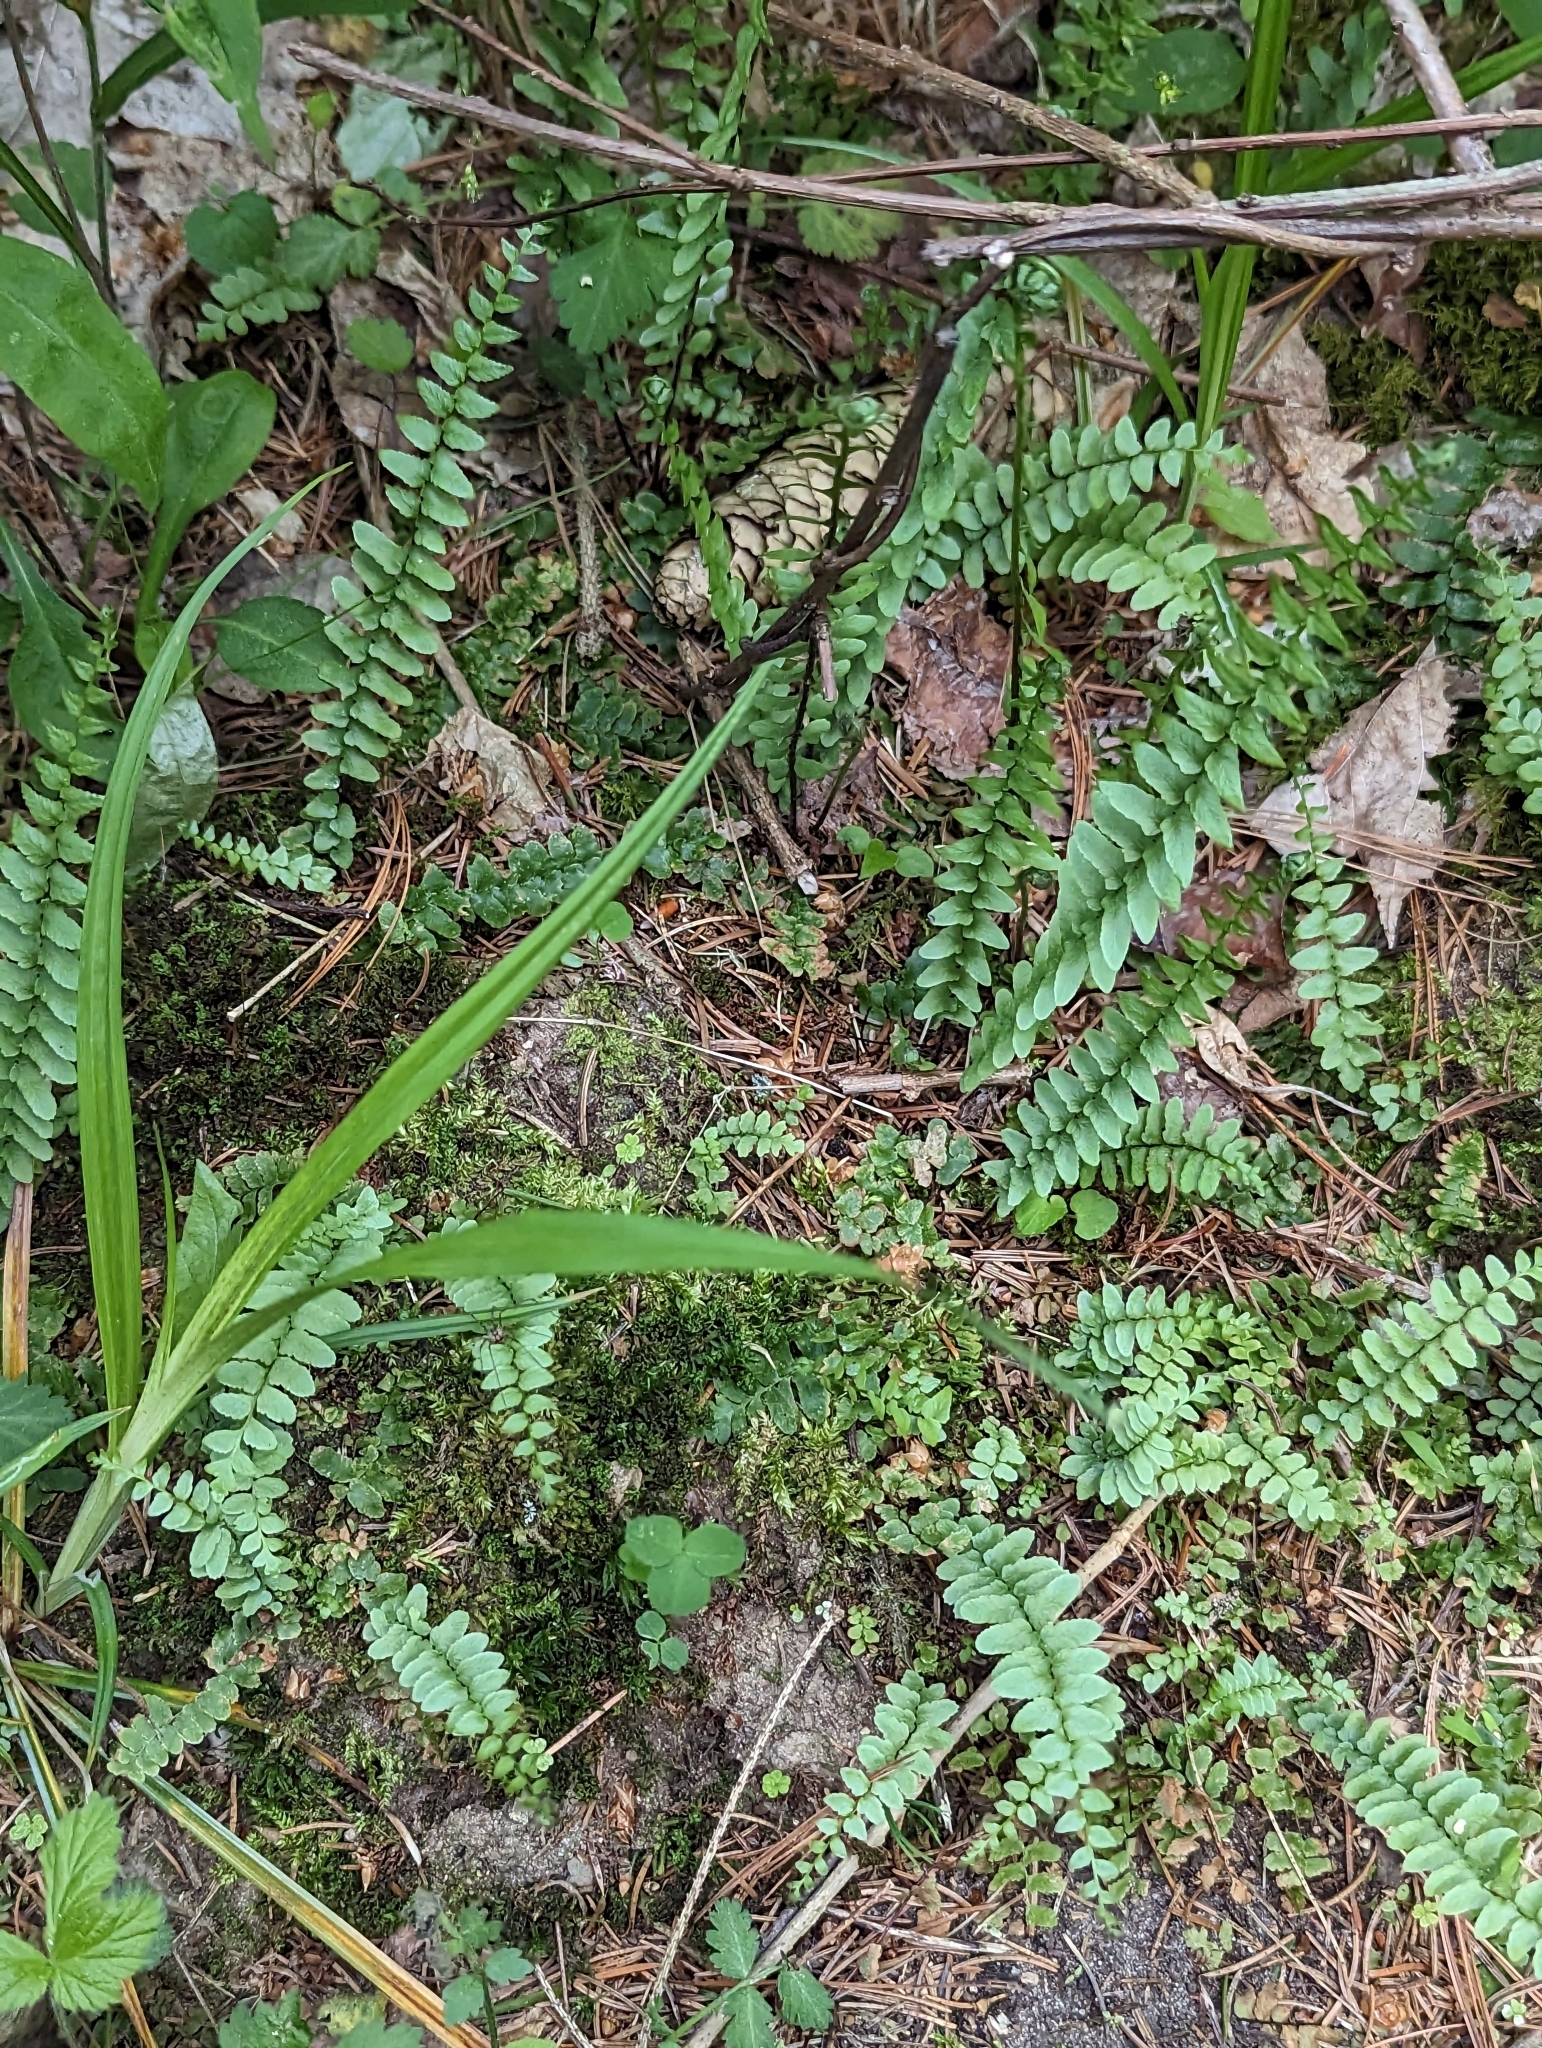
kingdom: Plantae
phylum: Tracheophyta
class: Polypodiopsida
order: Polypodiales
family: Aspleniaceae
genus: Asplenium
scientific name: Asplenium platyneuron
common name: Ebony spleenwort
